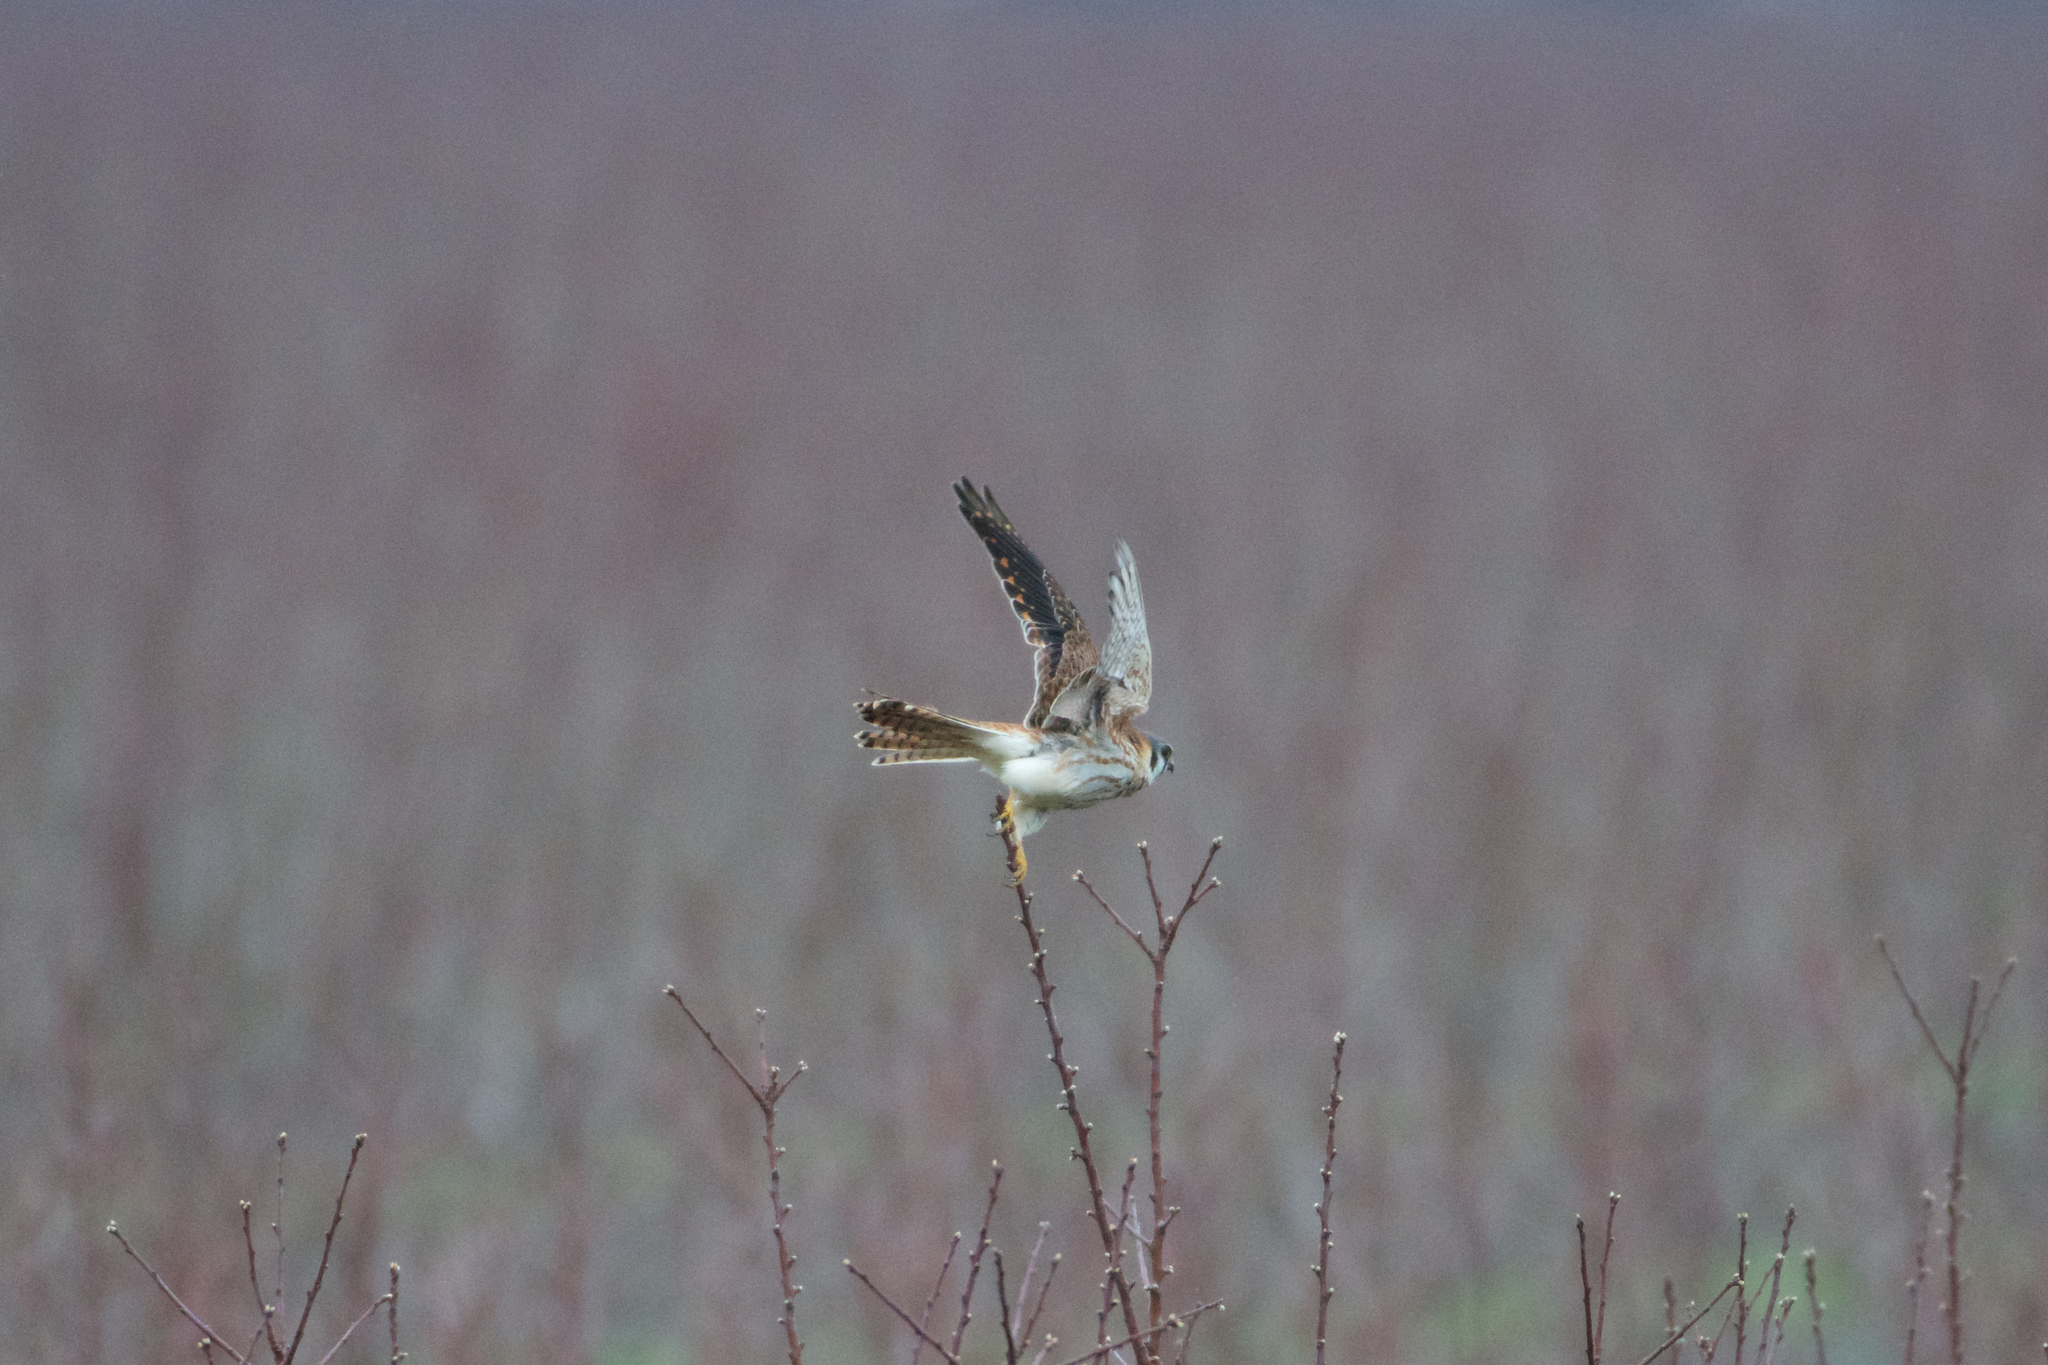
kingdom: Animalia
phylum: Chordata
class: Aves
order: Falconiformes
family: Falconidae
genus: Falco
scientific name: Falco sparverius
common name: American kestrel
